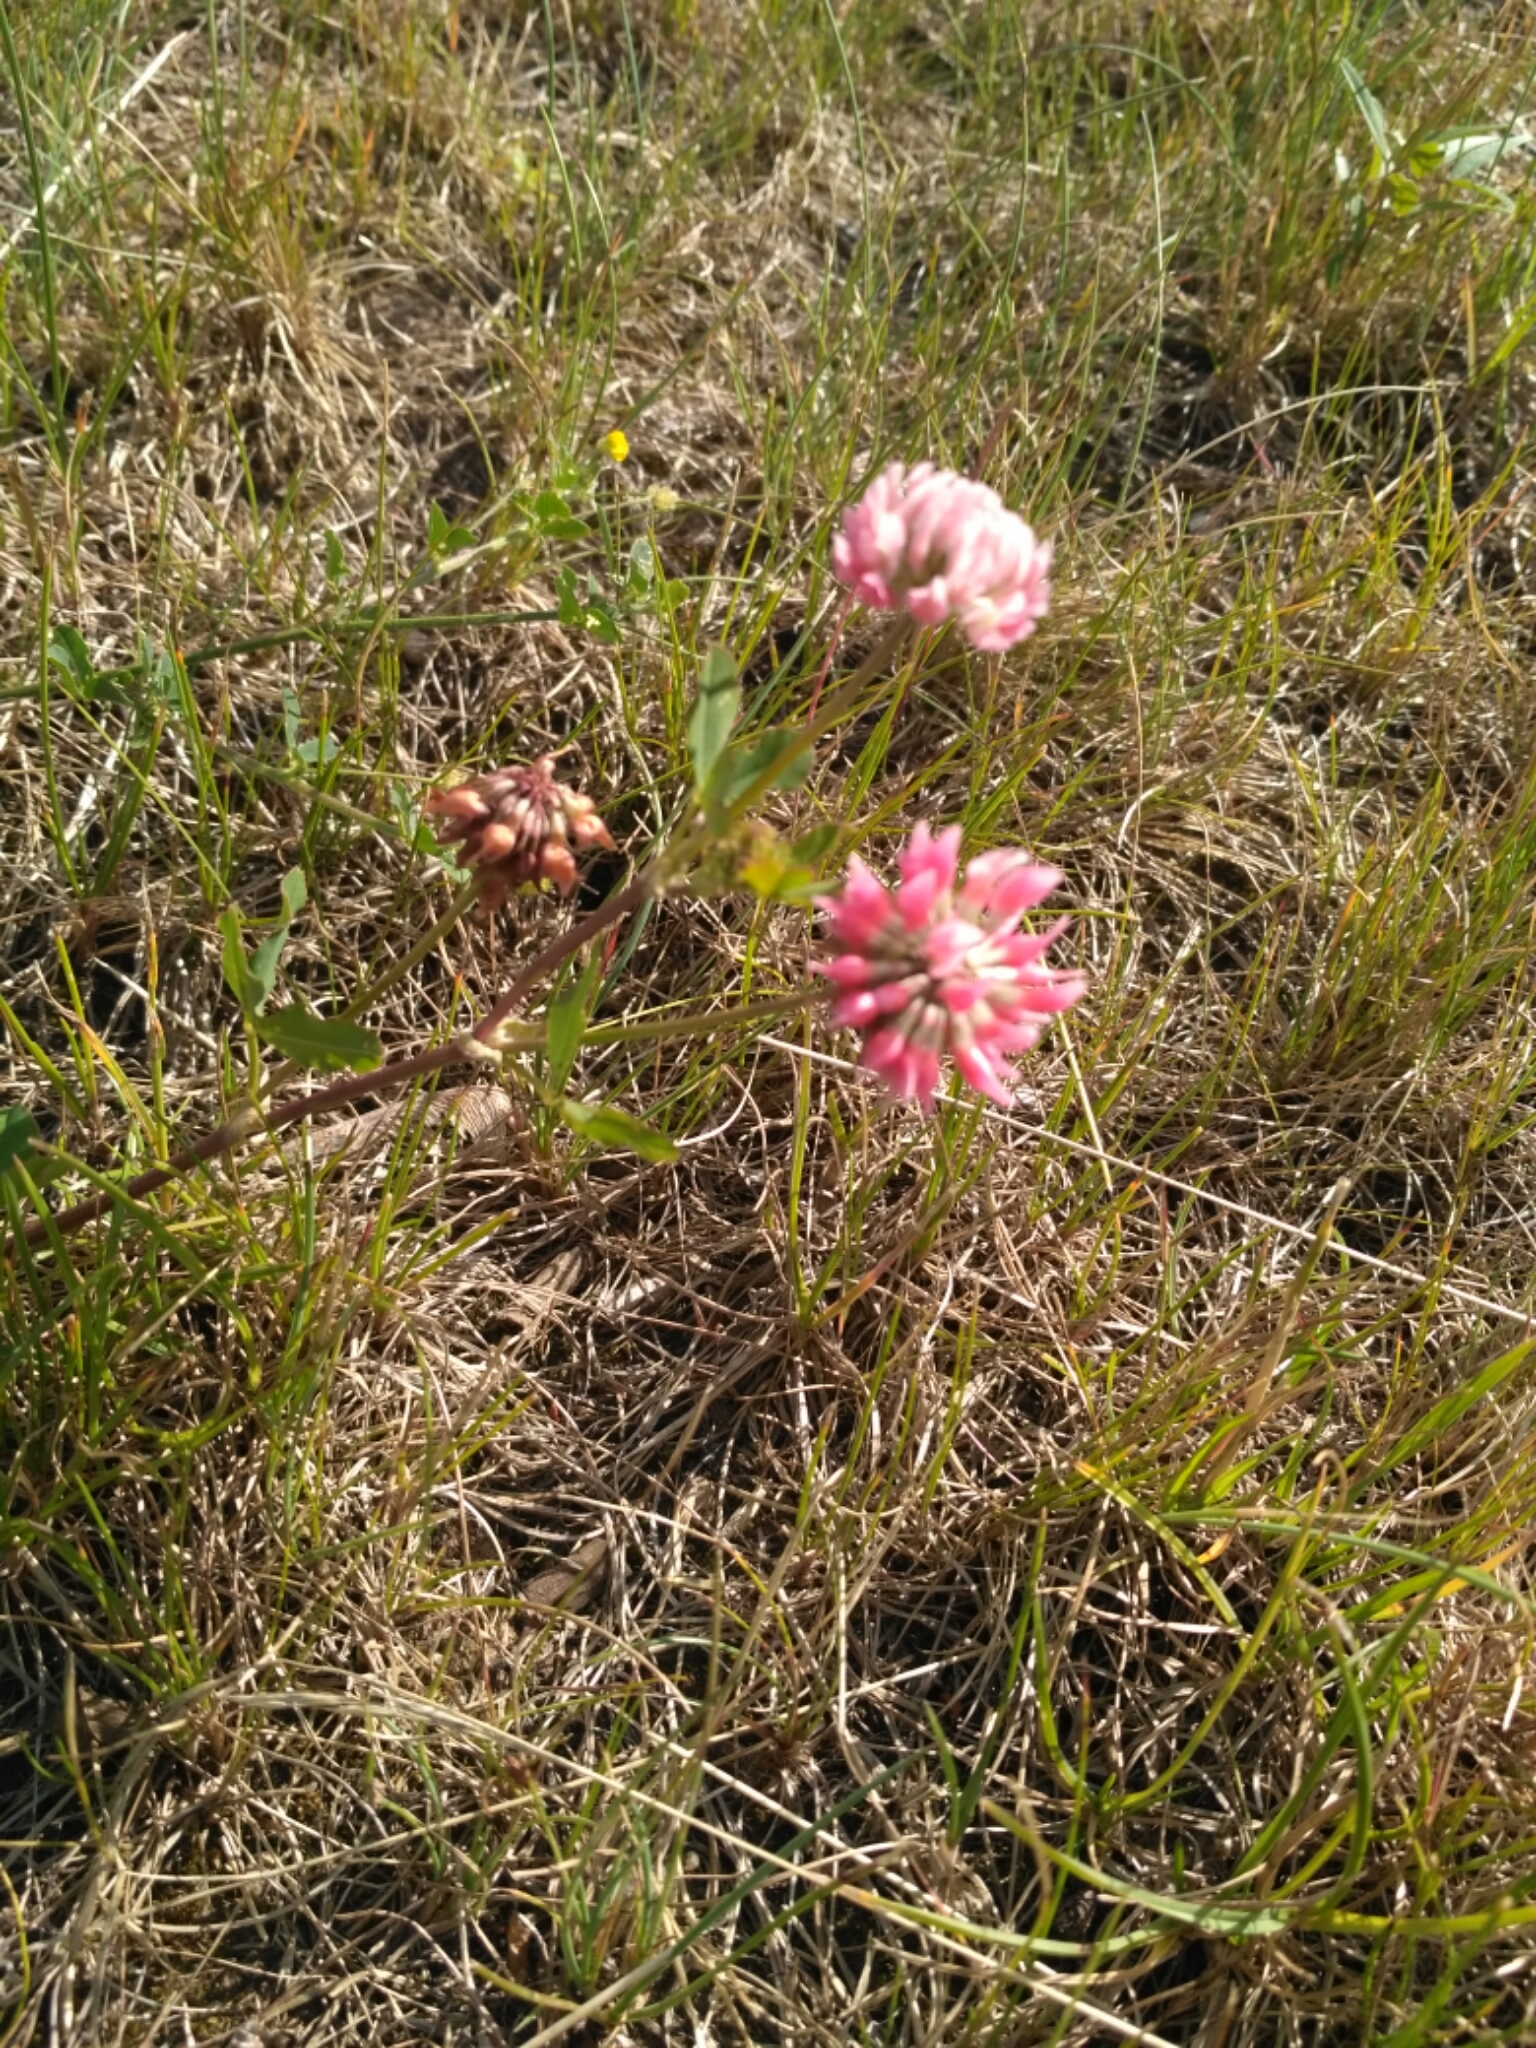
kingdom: Plantae
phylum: Tracheophyta
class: Magnoliopsida
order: Fabales
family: Fabaceae
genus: Trifolium
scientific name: Trifolium hybridum
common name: Alsike clover
